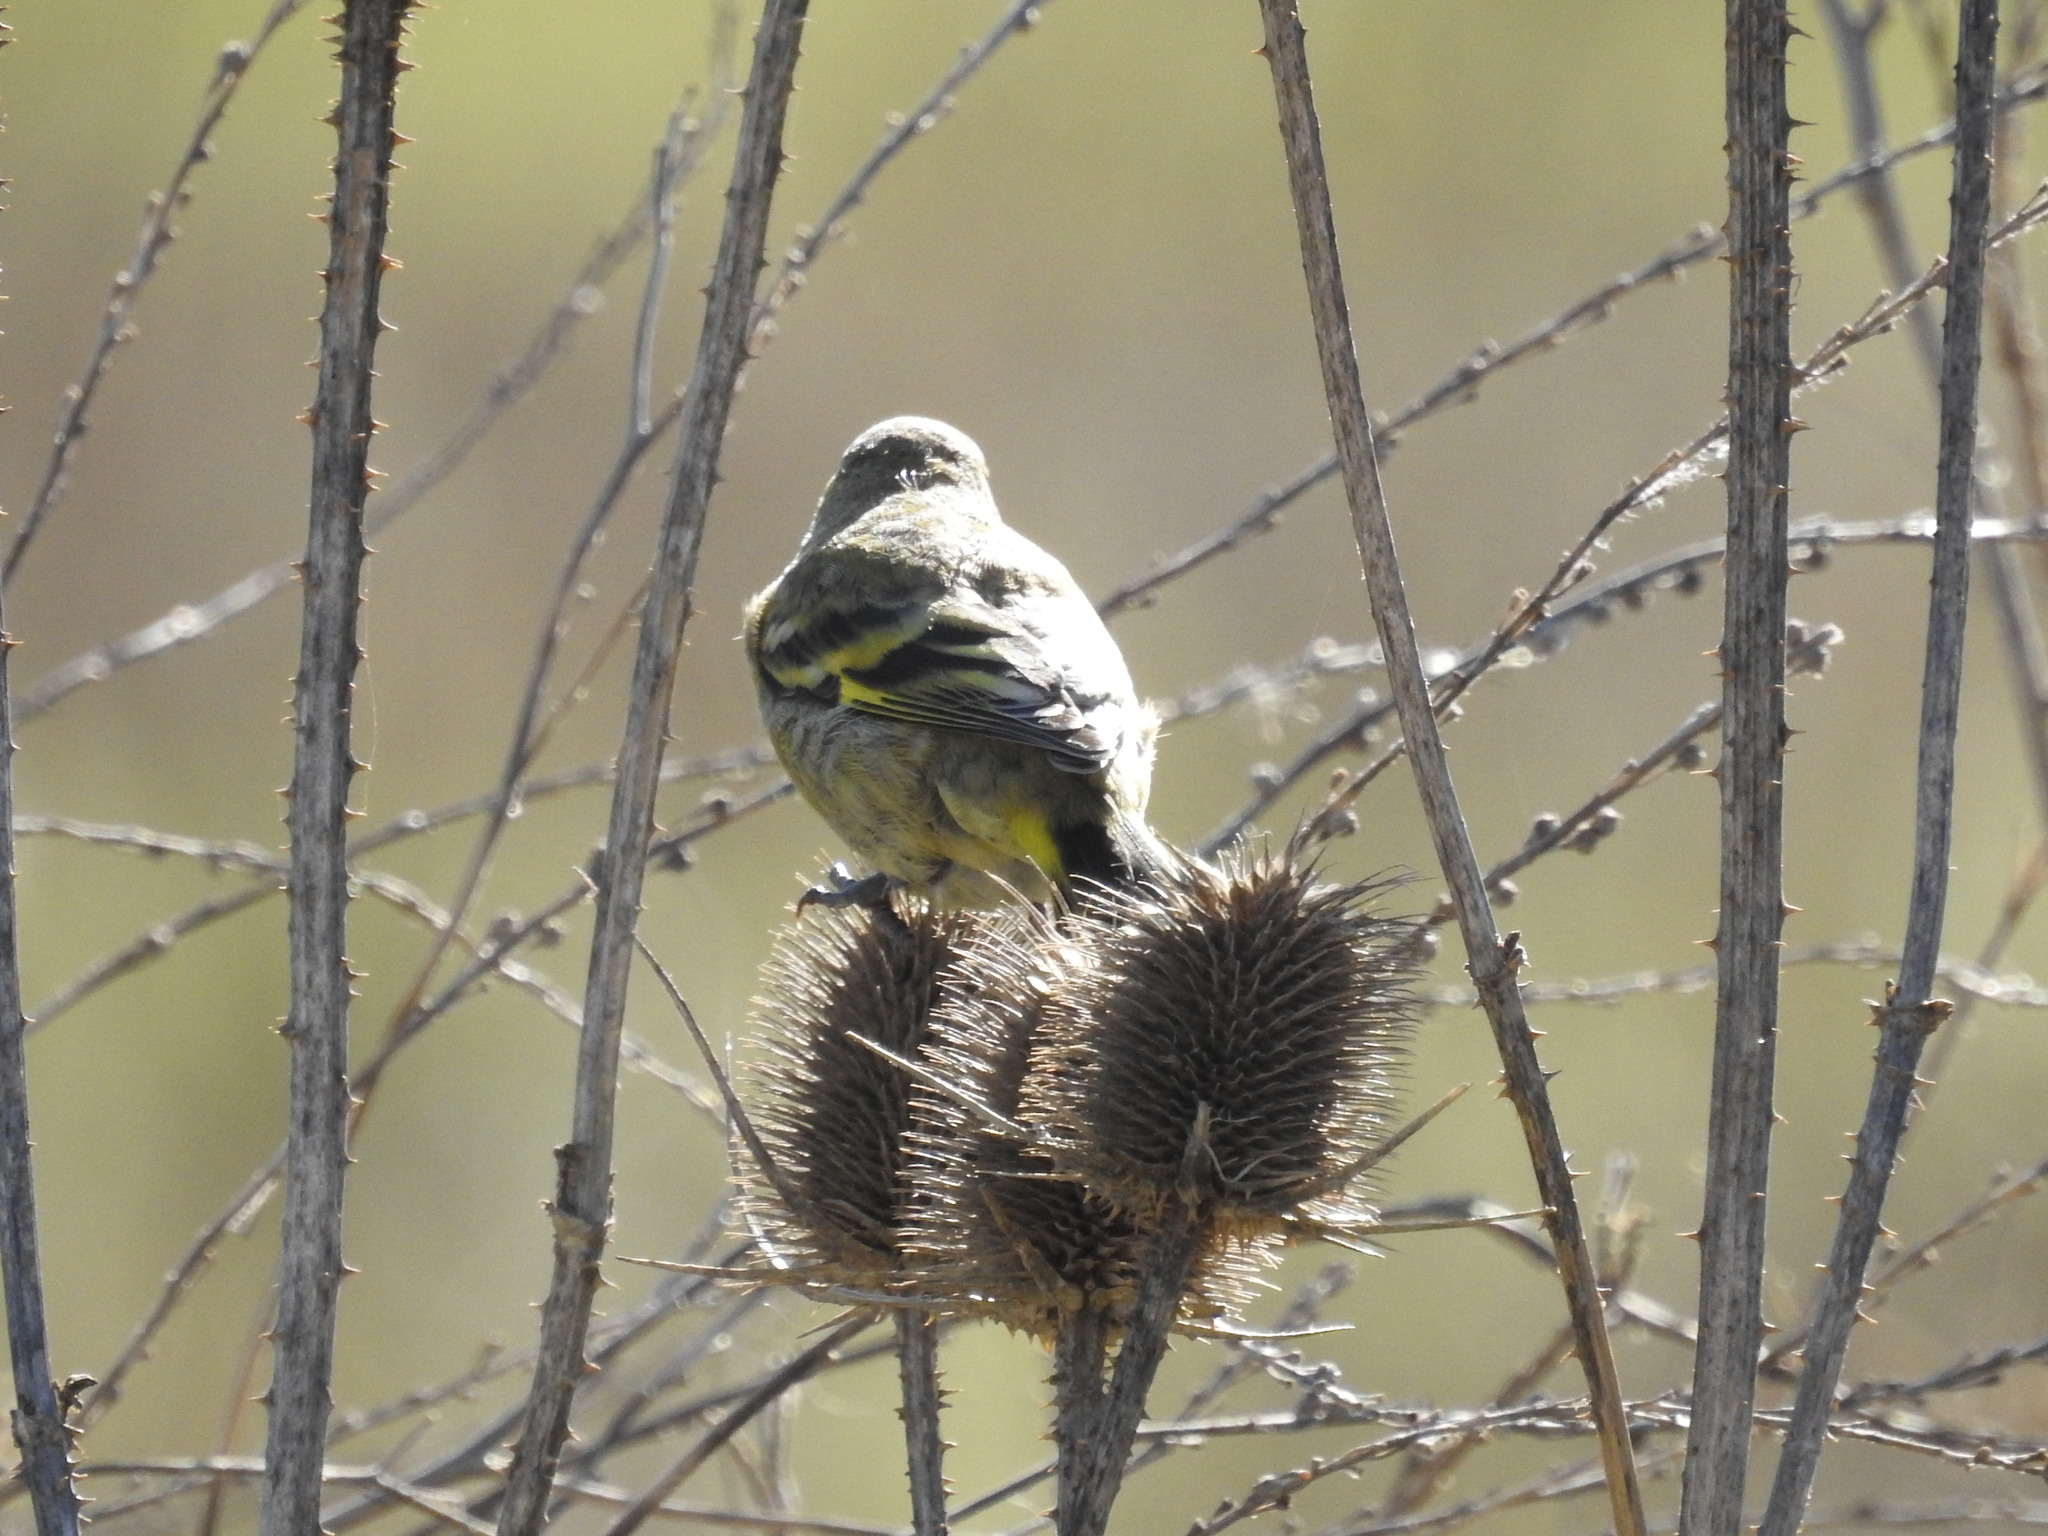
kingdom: Animalia
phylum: Chordata
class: Aves
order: Passeriformes
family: Fringillidae
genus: Spinus
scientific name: Spinus magellanicus
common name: Hooded siskin
